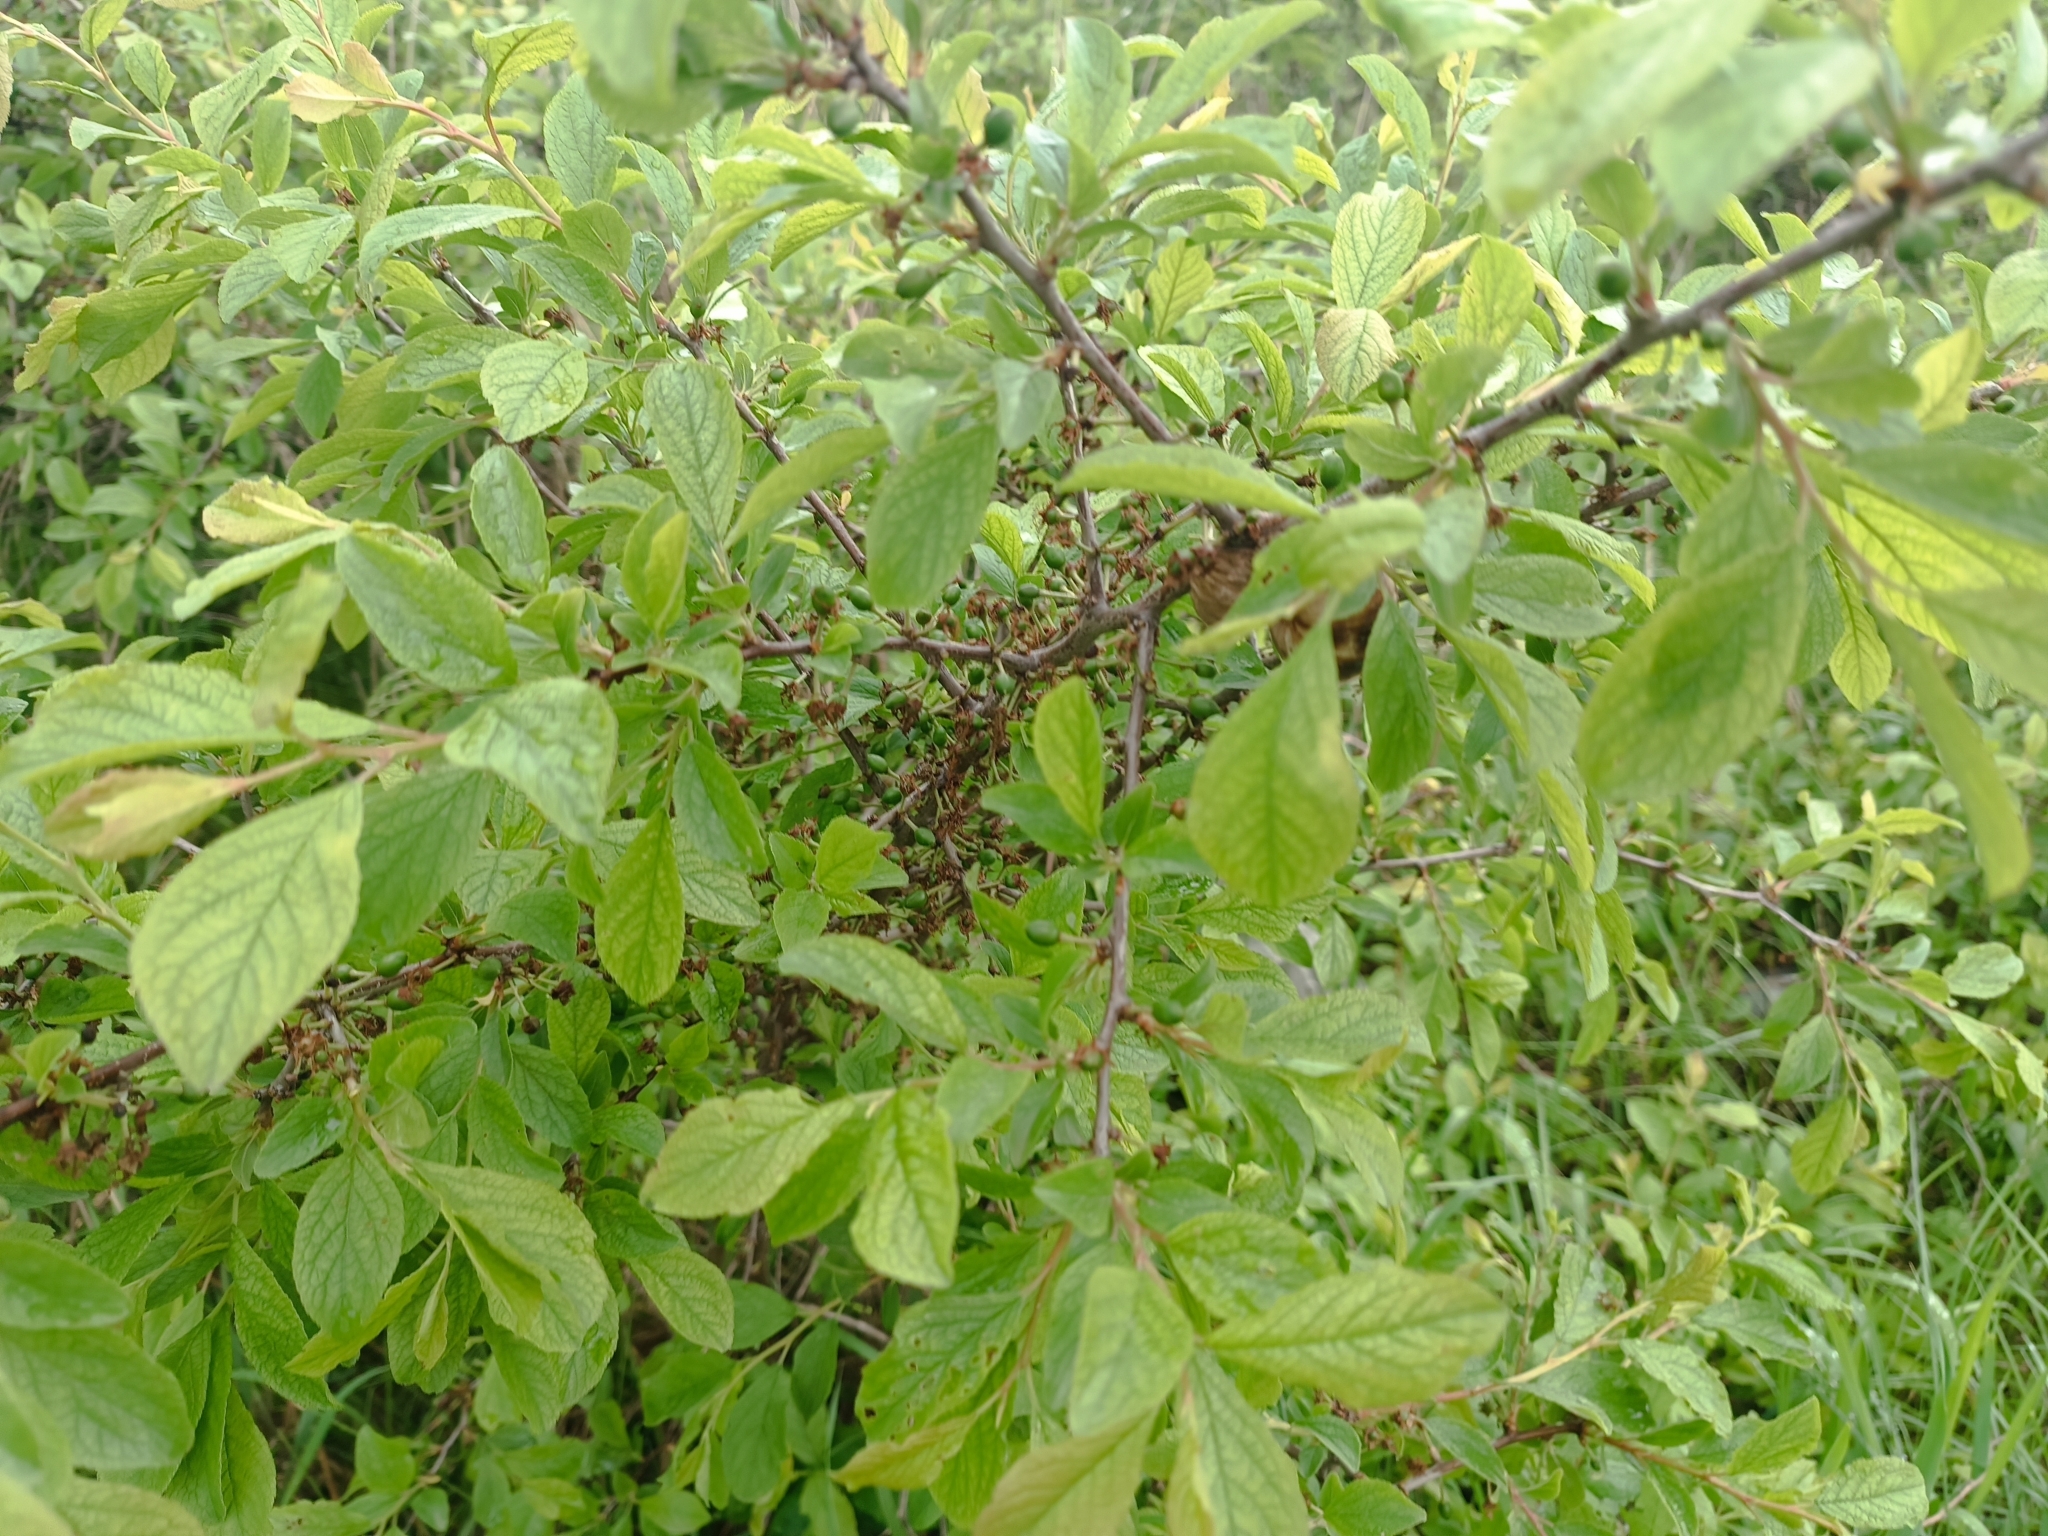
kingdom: Plantae
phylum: Tracheophyta
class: Magnoliopsida
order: Rosales
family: Rosaceae
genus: Prunus
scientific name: Prunus spinosa
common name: Blackthorn
